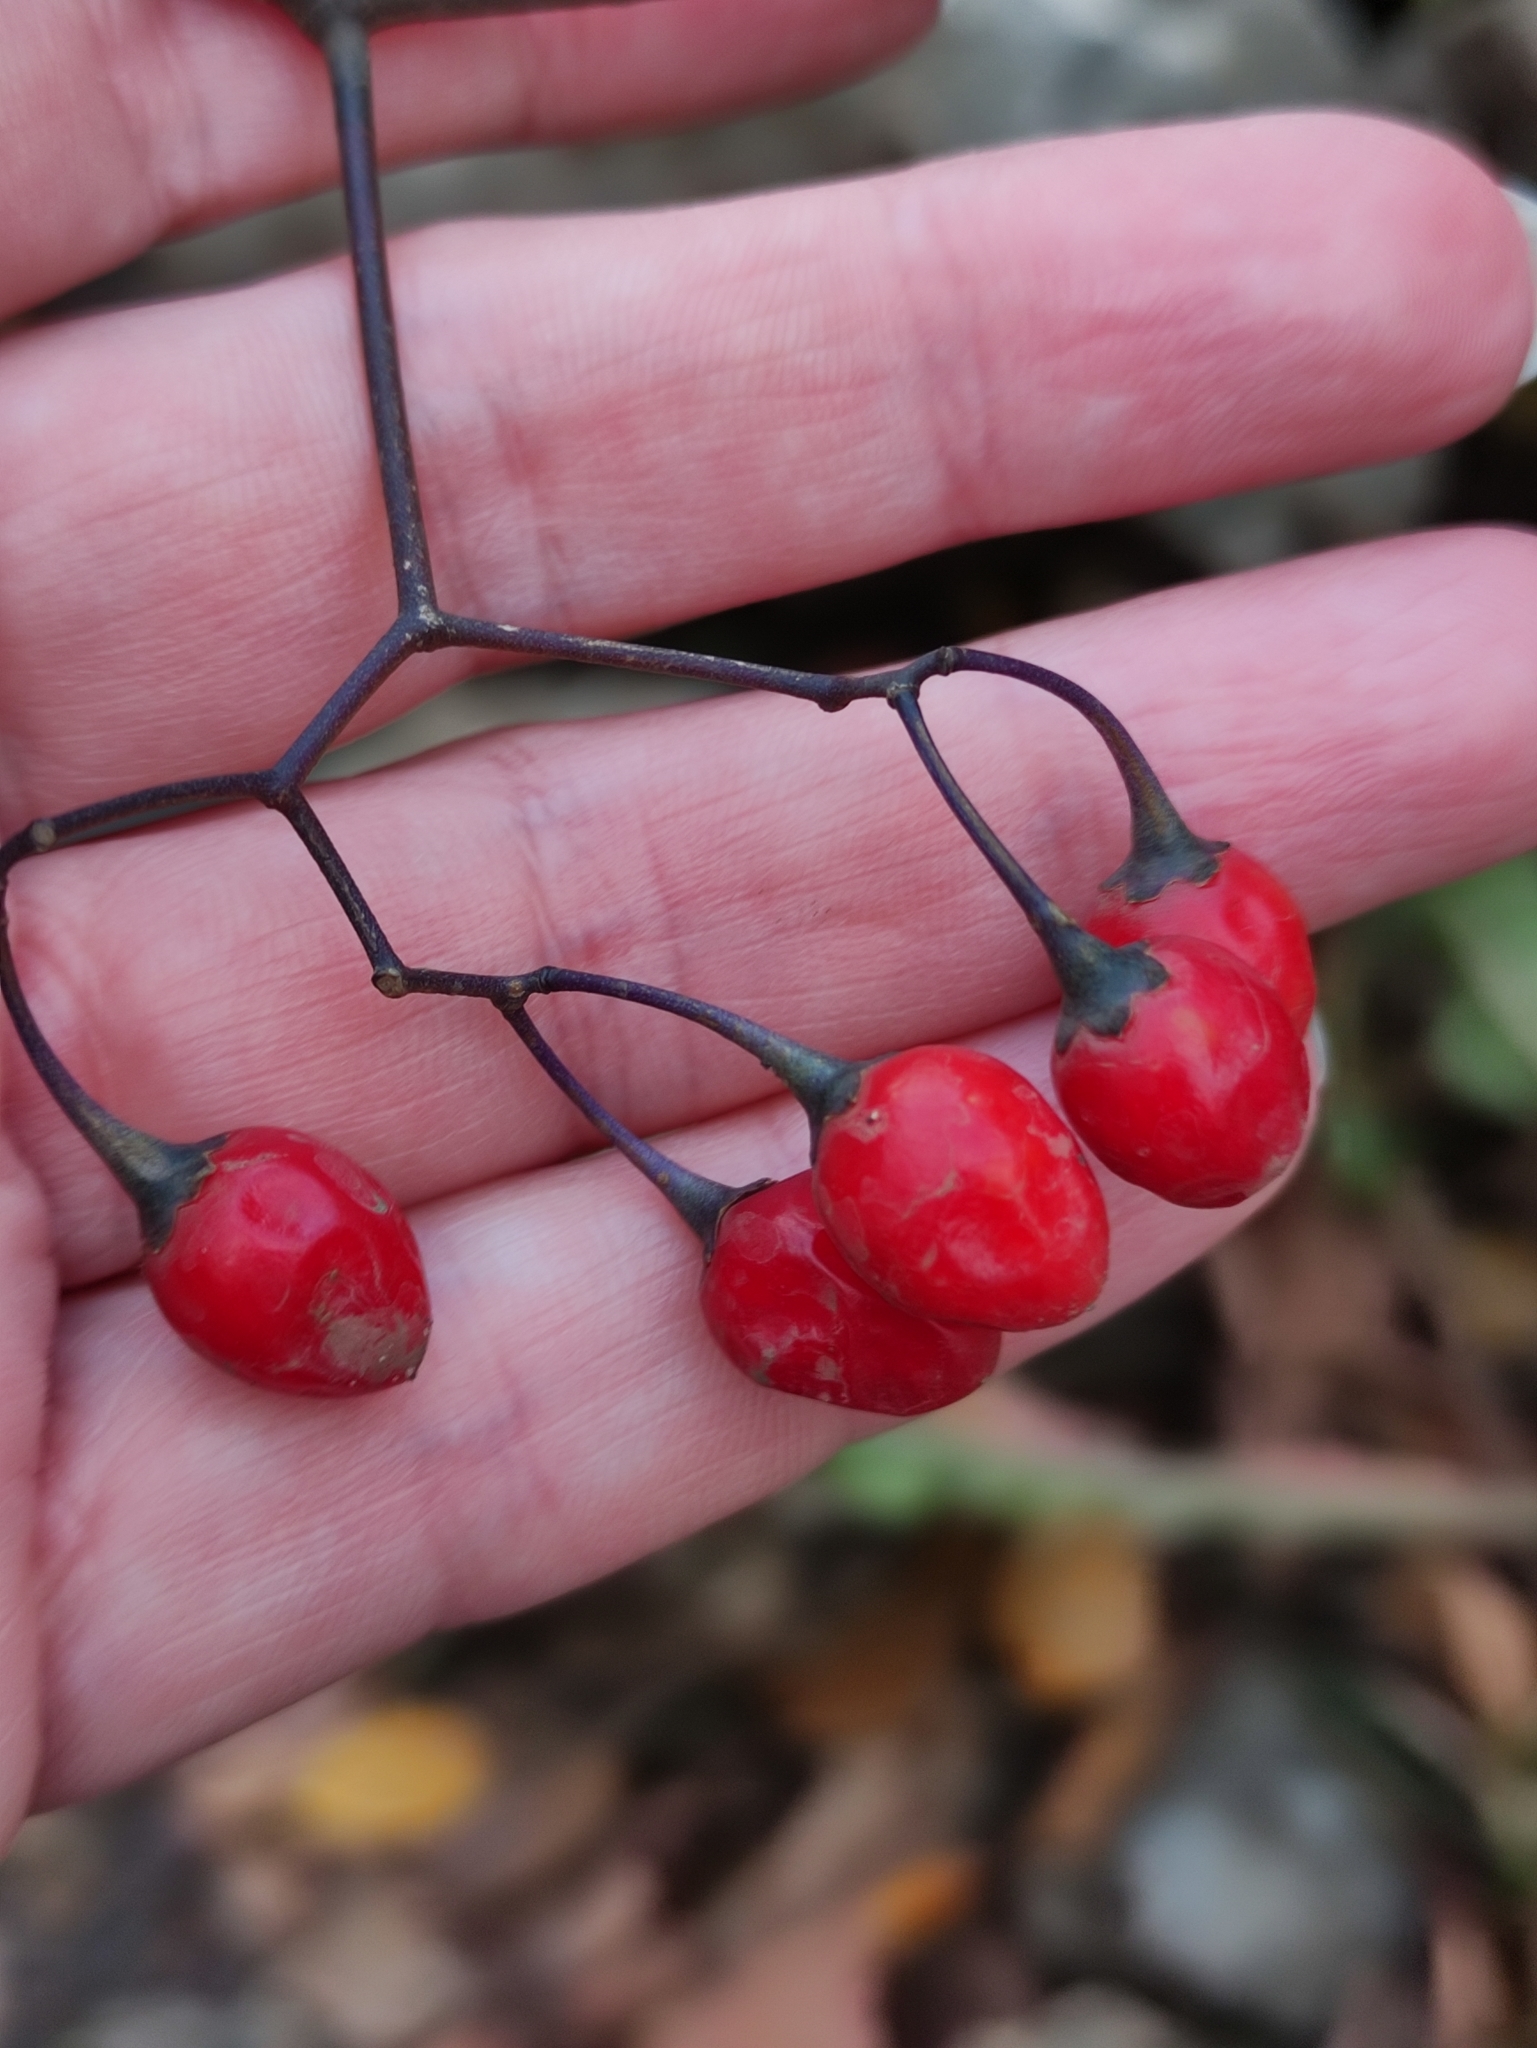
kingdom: Plantae
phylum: Tracheophyta
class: Magnoliopsida
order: Solanales
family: Solanaceae
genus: Solanum
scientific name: Solanum dulcamara
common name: Climbing nightshade
